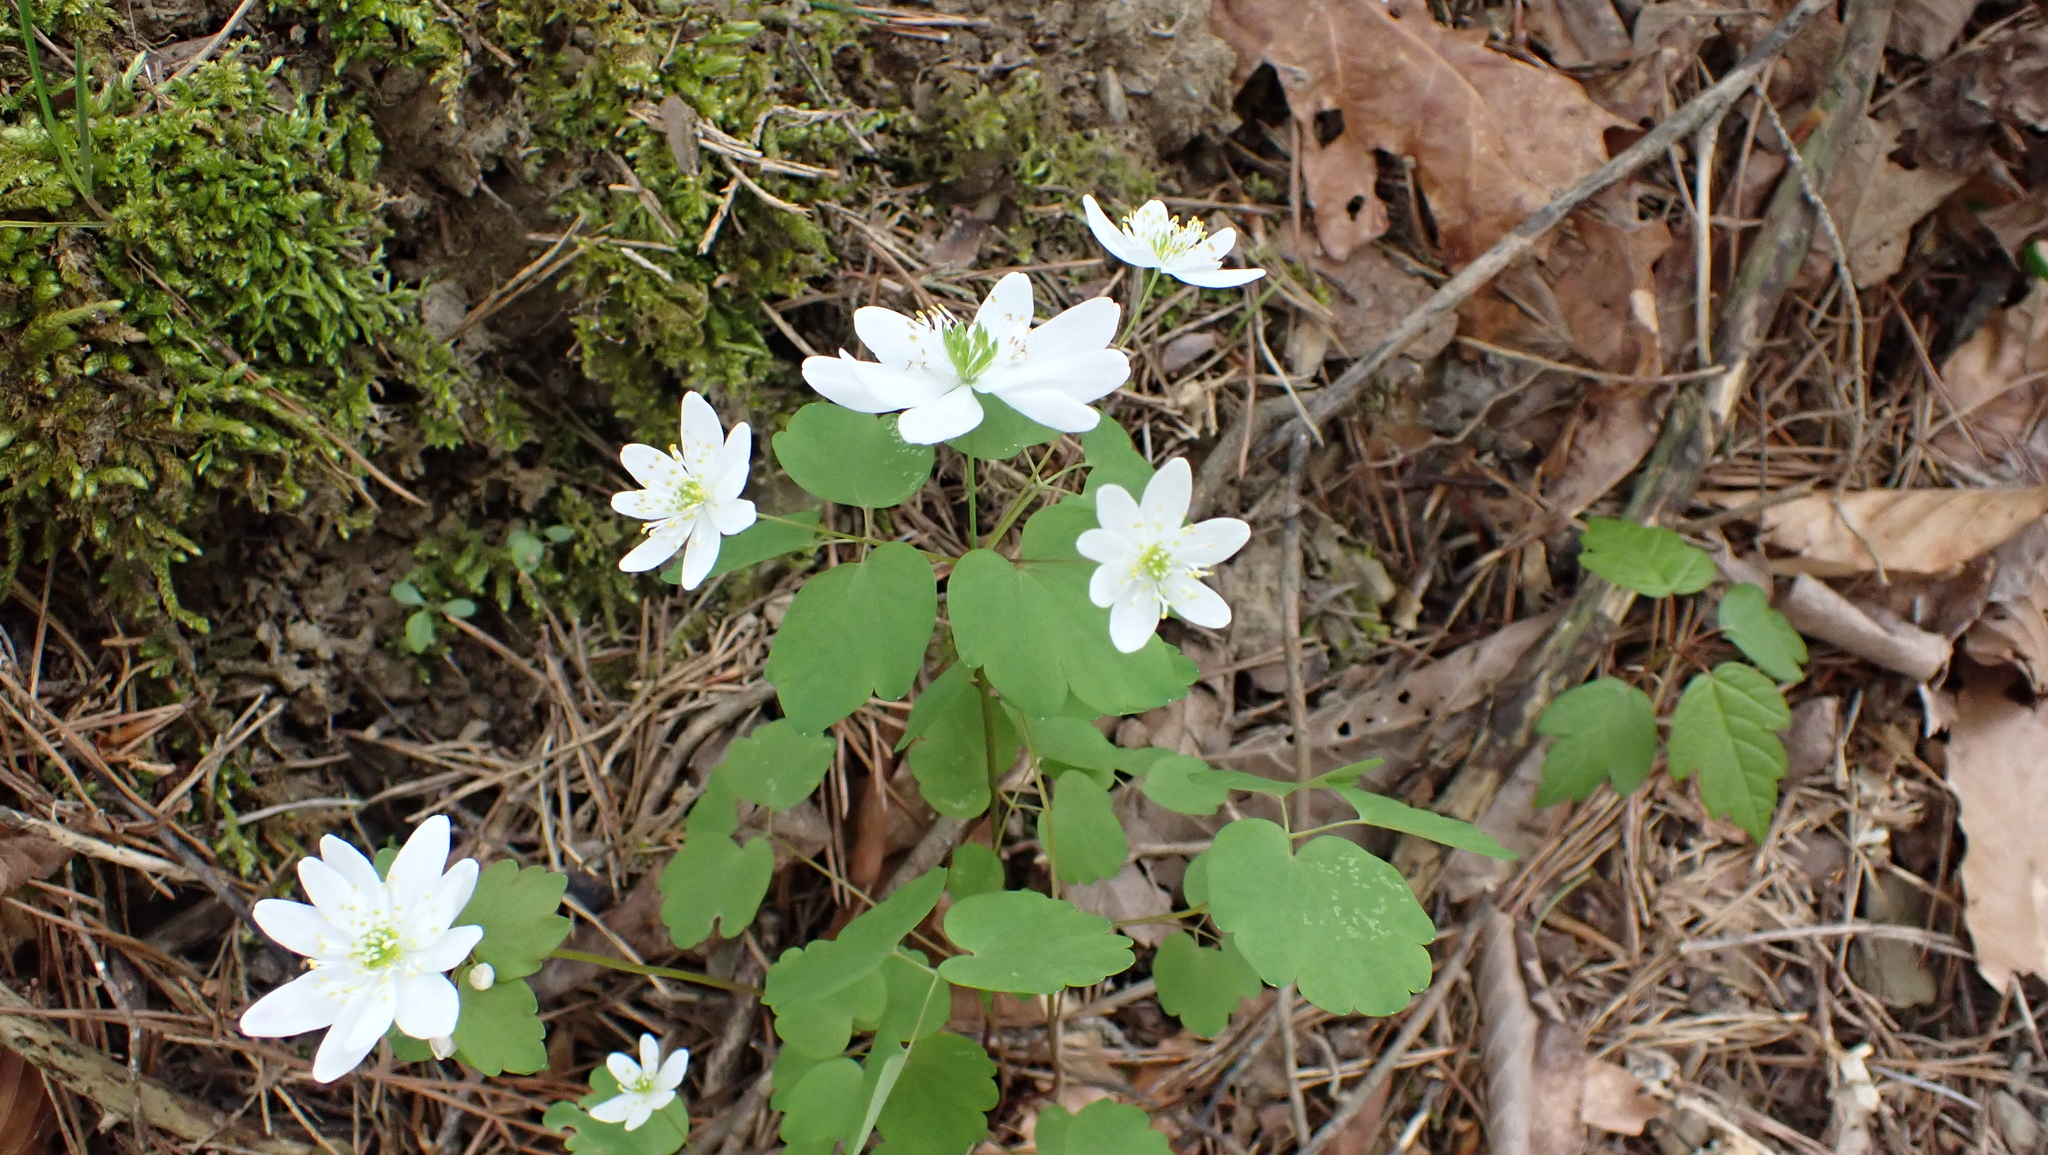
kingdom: Plantae
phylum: Tracheophyta
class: Magnoliopsida
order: Ranunculales
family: Ranunculaceae
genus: Thalictrum
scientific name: Thalictrum thalictroides
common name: Rue-anemone
